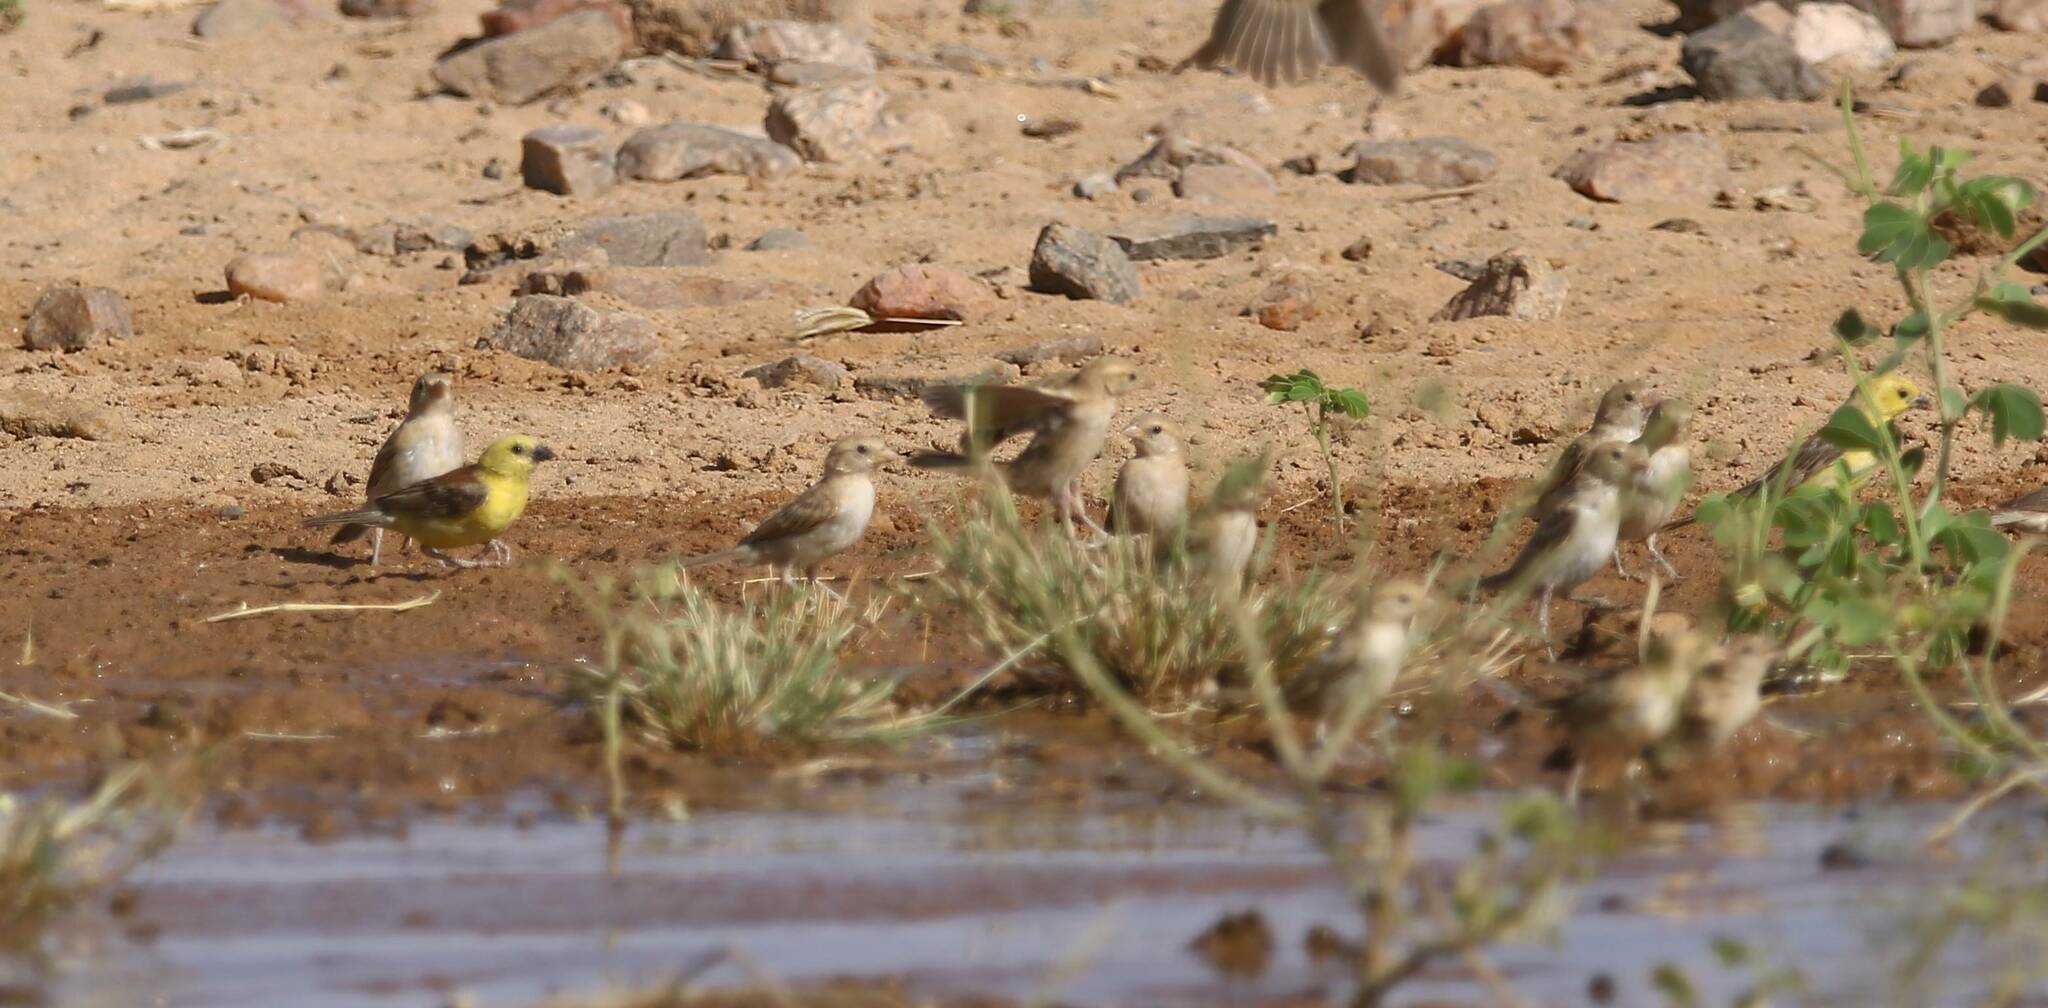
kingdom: Animalia
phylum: Chordata
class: Aves
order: Passeriformes
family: Passeridae
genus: Passer
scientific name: Passer luteus
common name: Sudan golden sparrow
